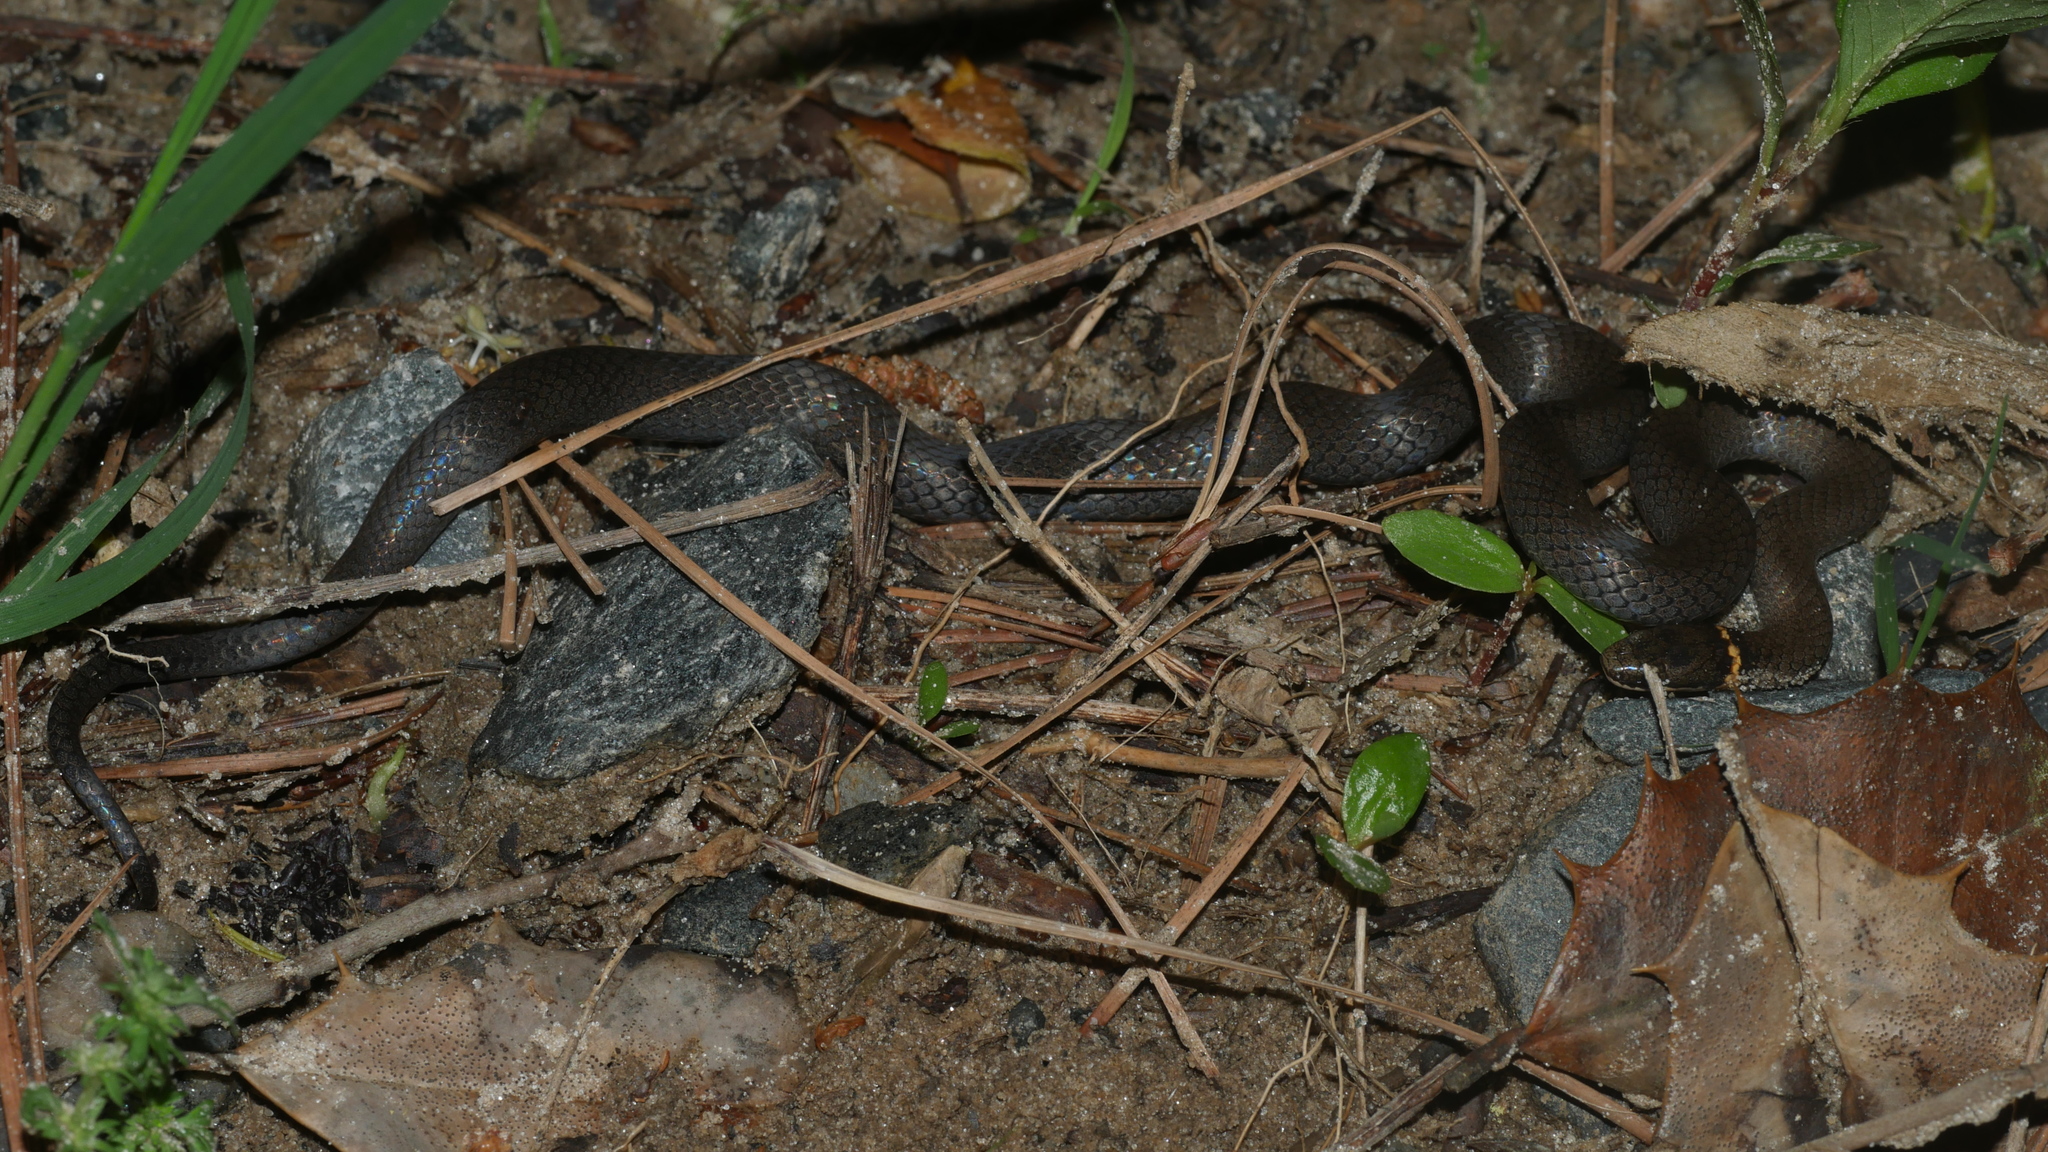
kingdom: Animalia
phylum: Chordata
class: Squamata
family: Colubridae
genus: Diadophis
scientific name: Diadophis punctatus
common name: Ringneck snake
